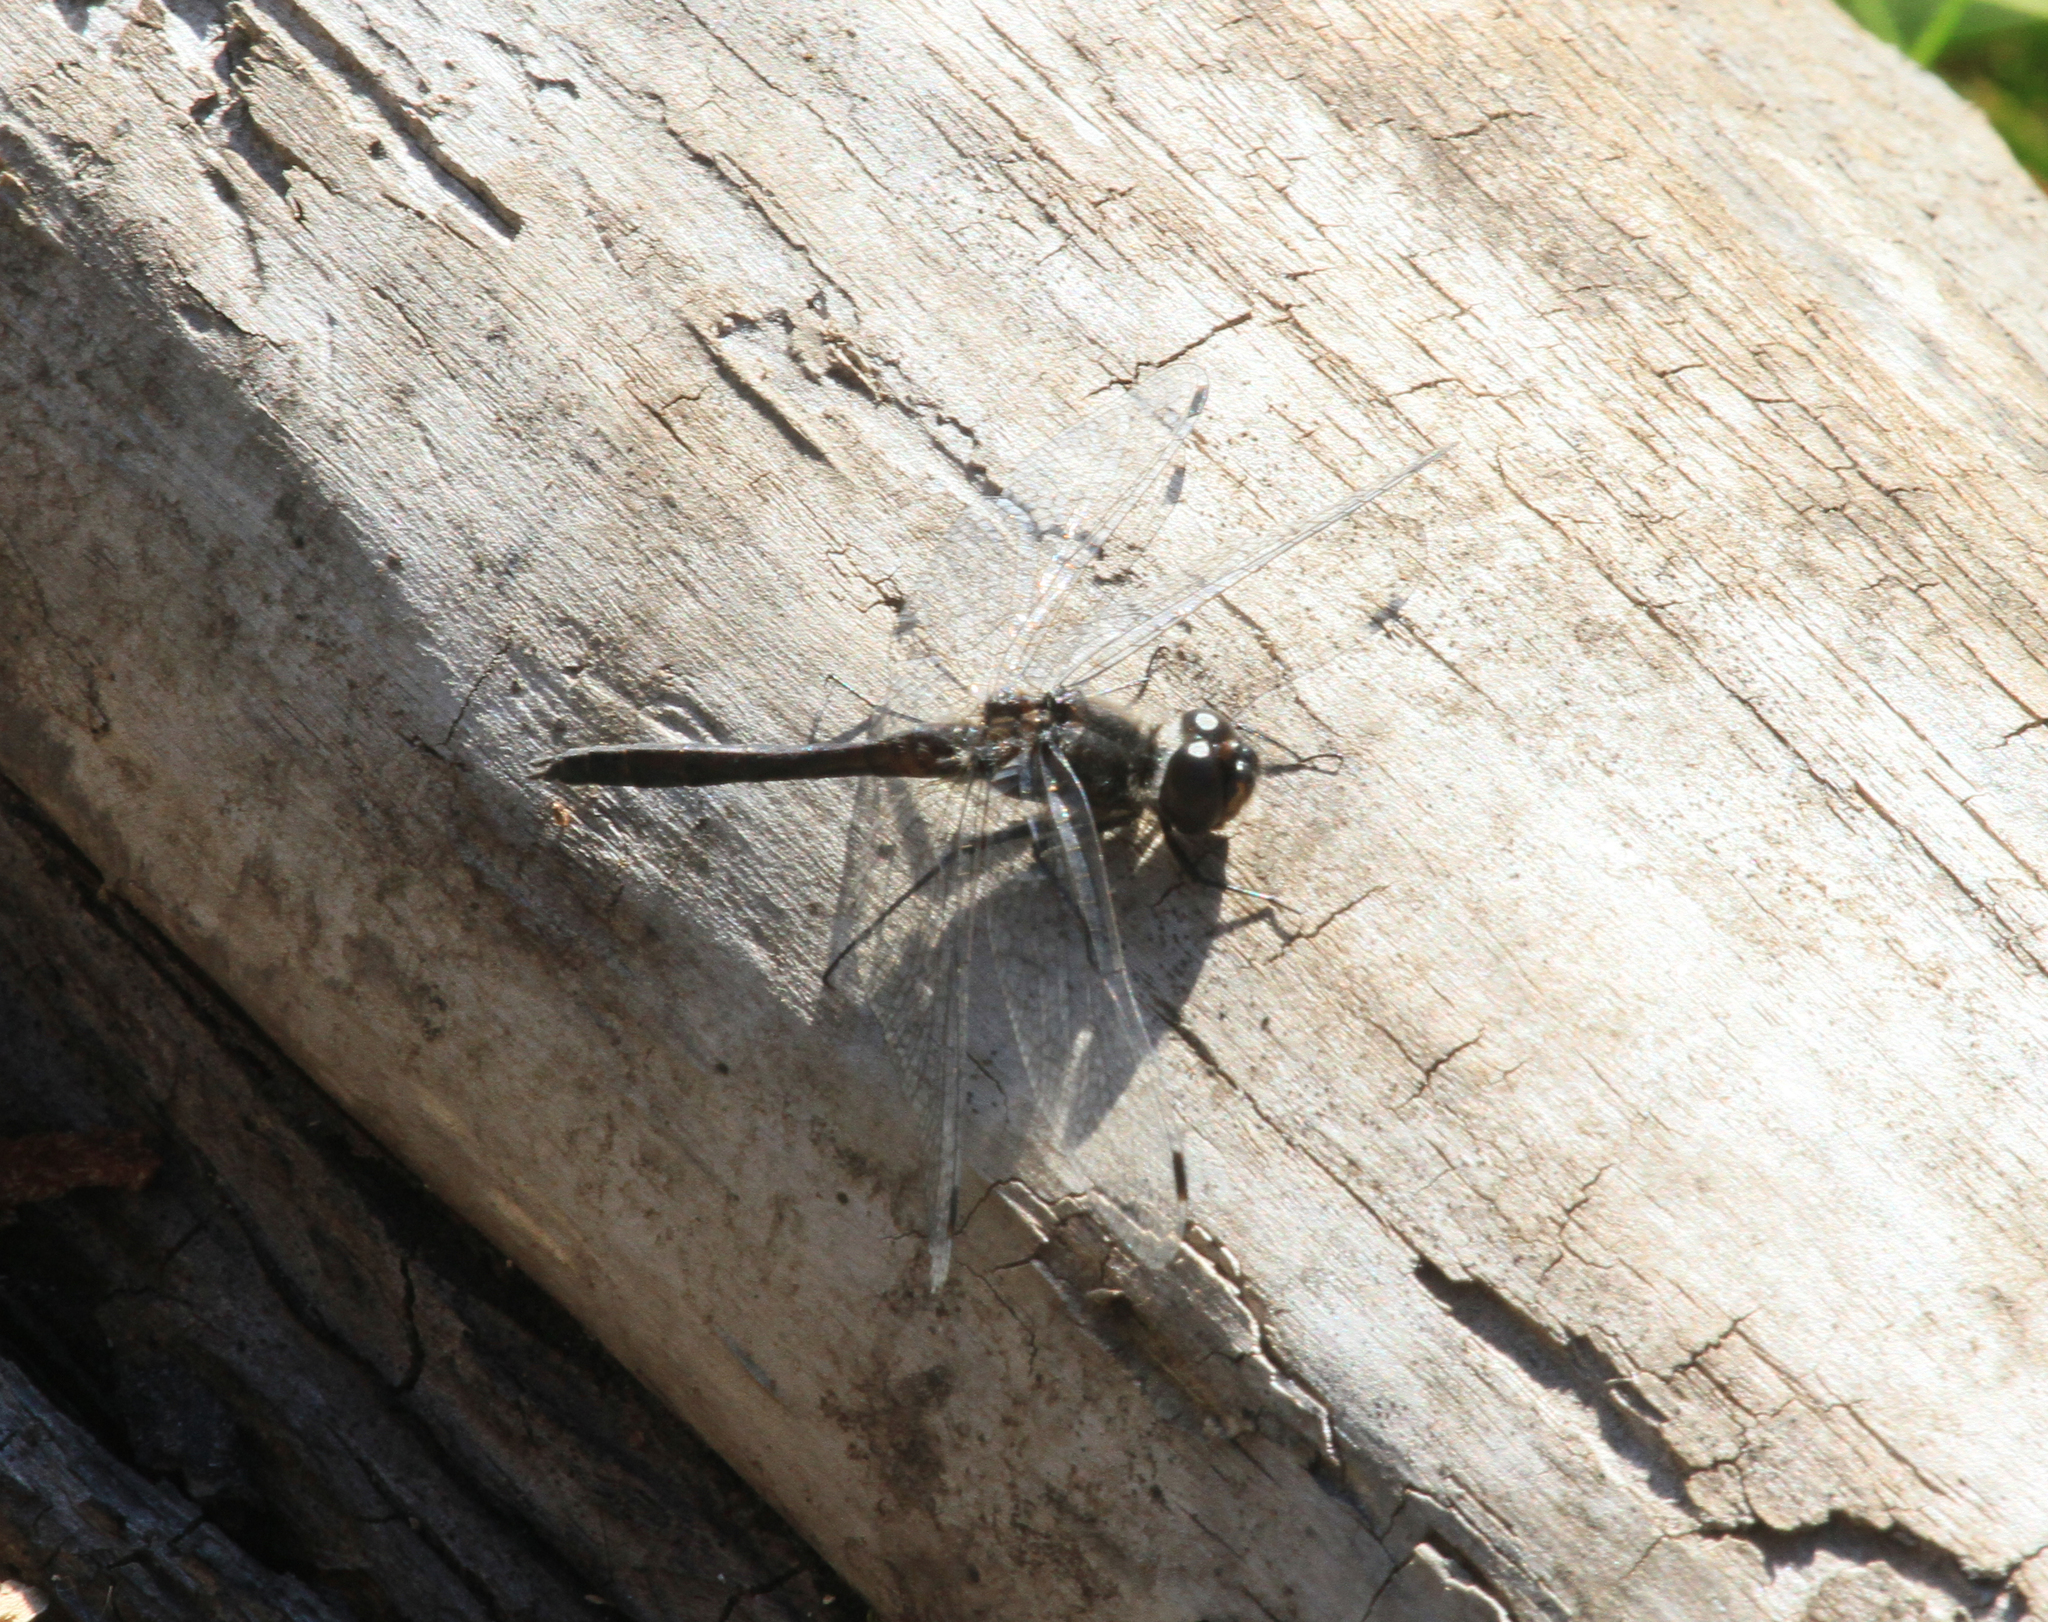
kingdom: Animalia
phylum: Arthropoda
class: Insecta
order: Odonata
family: Libellulidae
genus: Sympetrum
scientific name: Sympetrum danae
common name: Black darter
